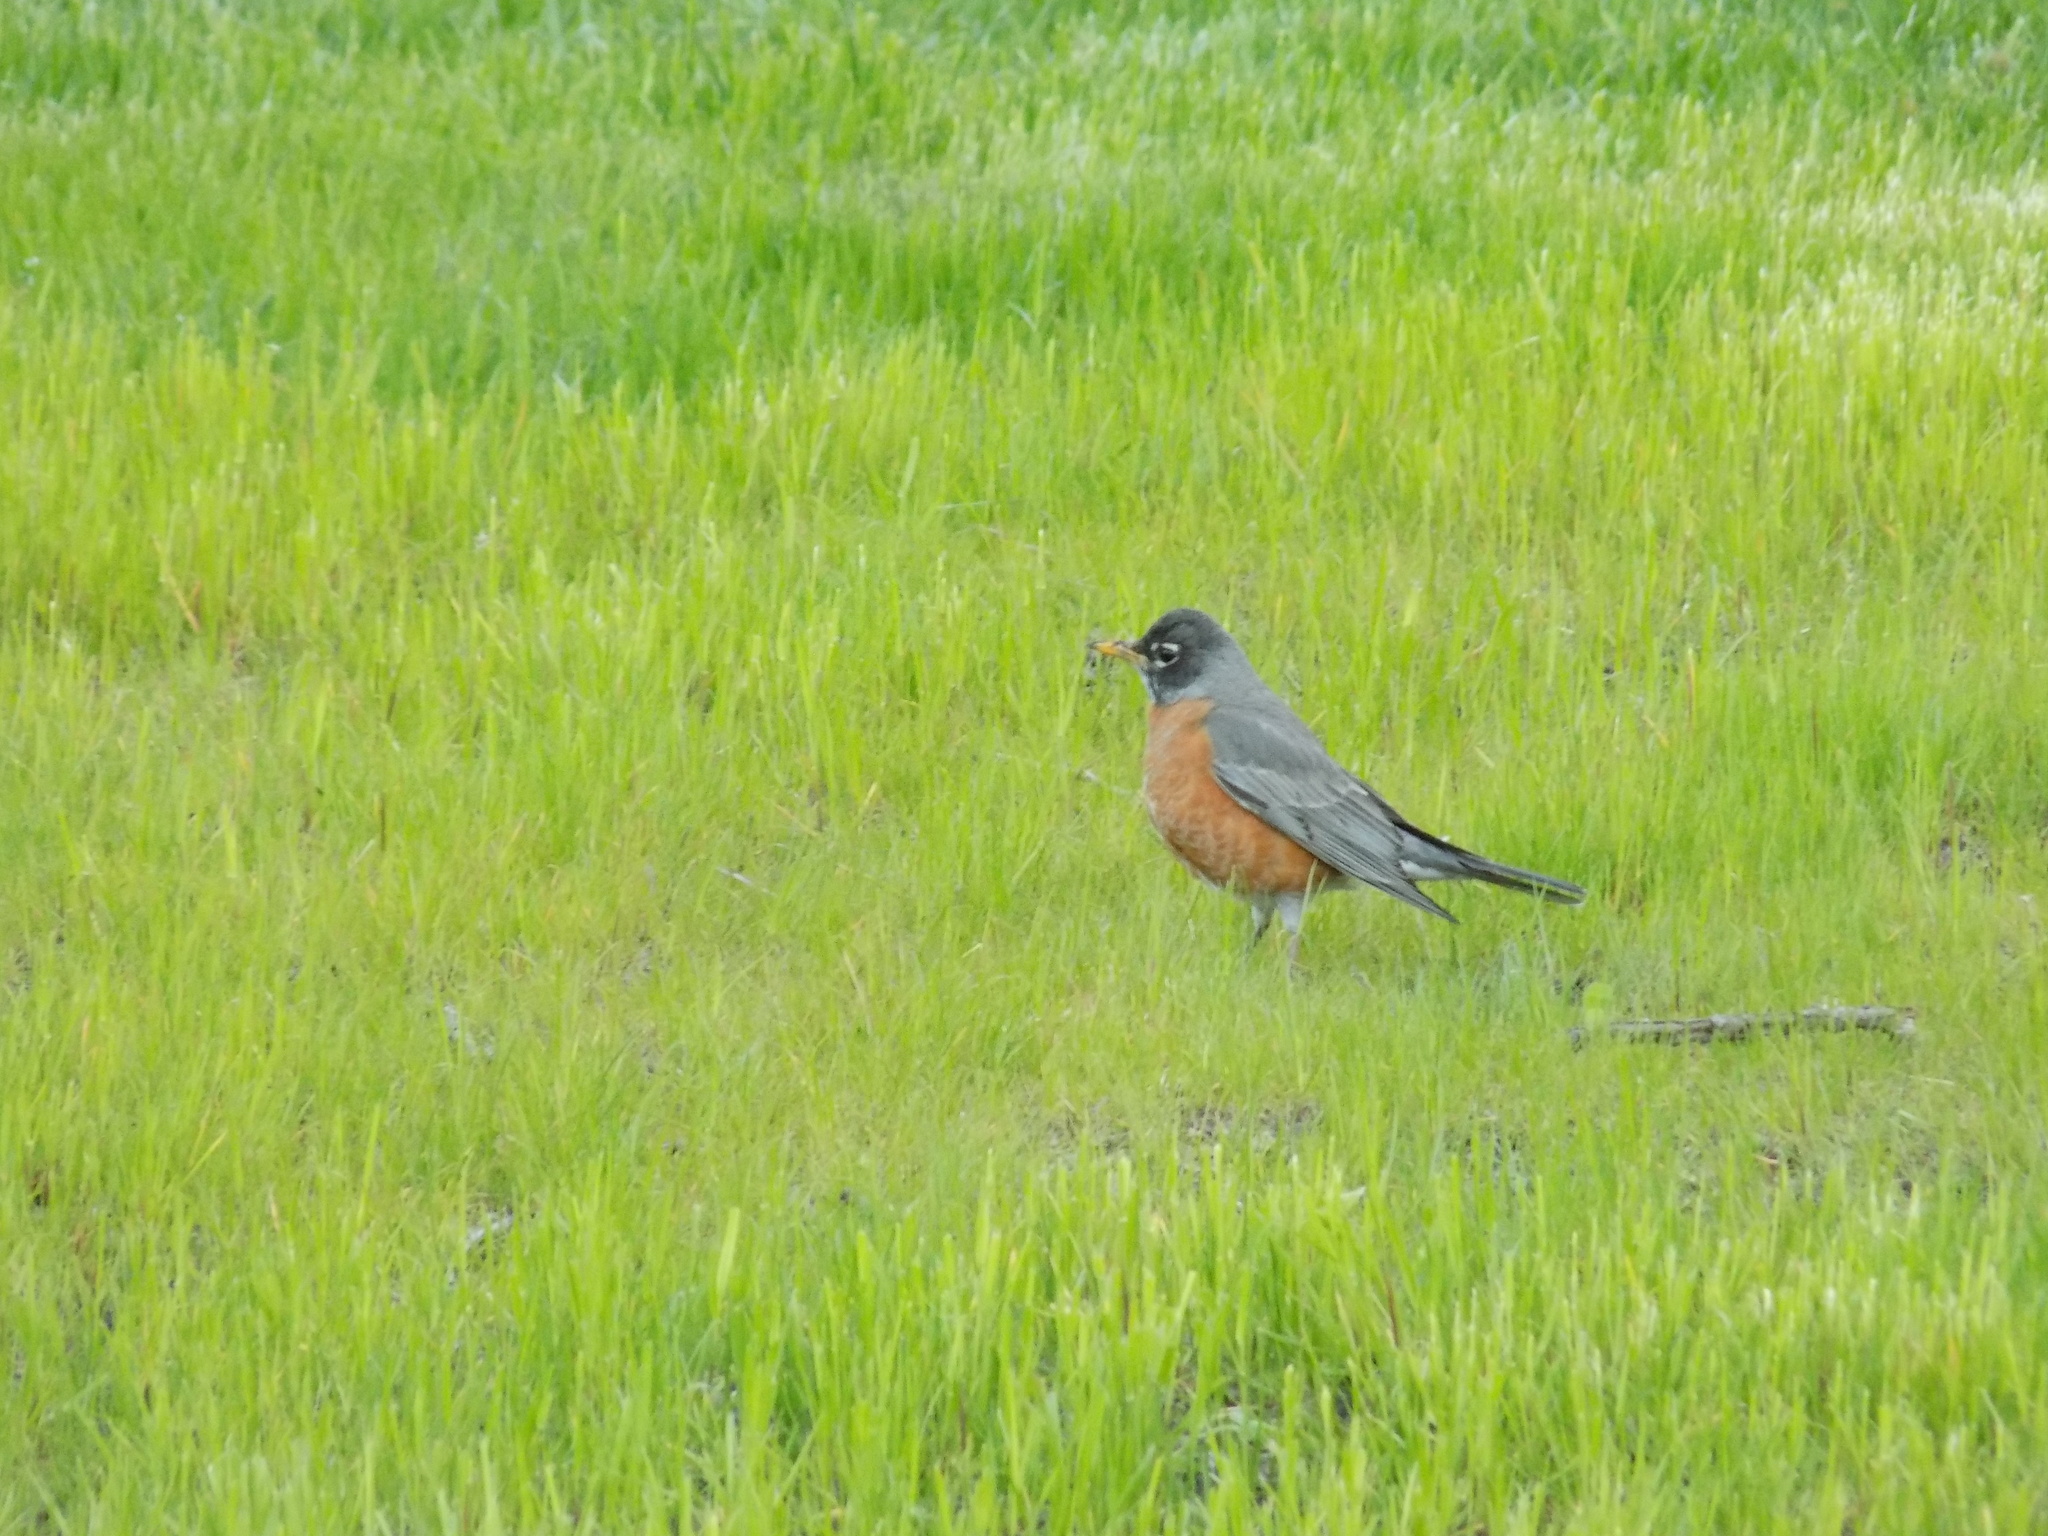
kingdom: Animalia
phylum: Chordata
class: Aves
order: Passeriformes
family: Turdidae
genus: Turdus
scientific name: Turdus migratorius
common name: American robin
